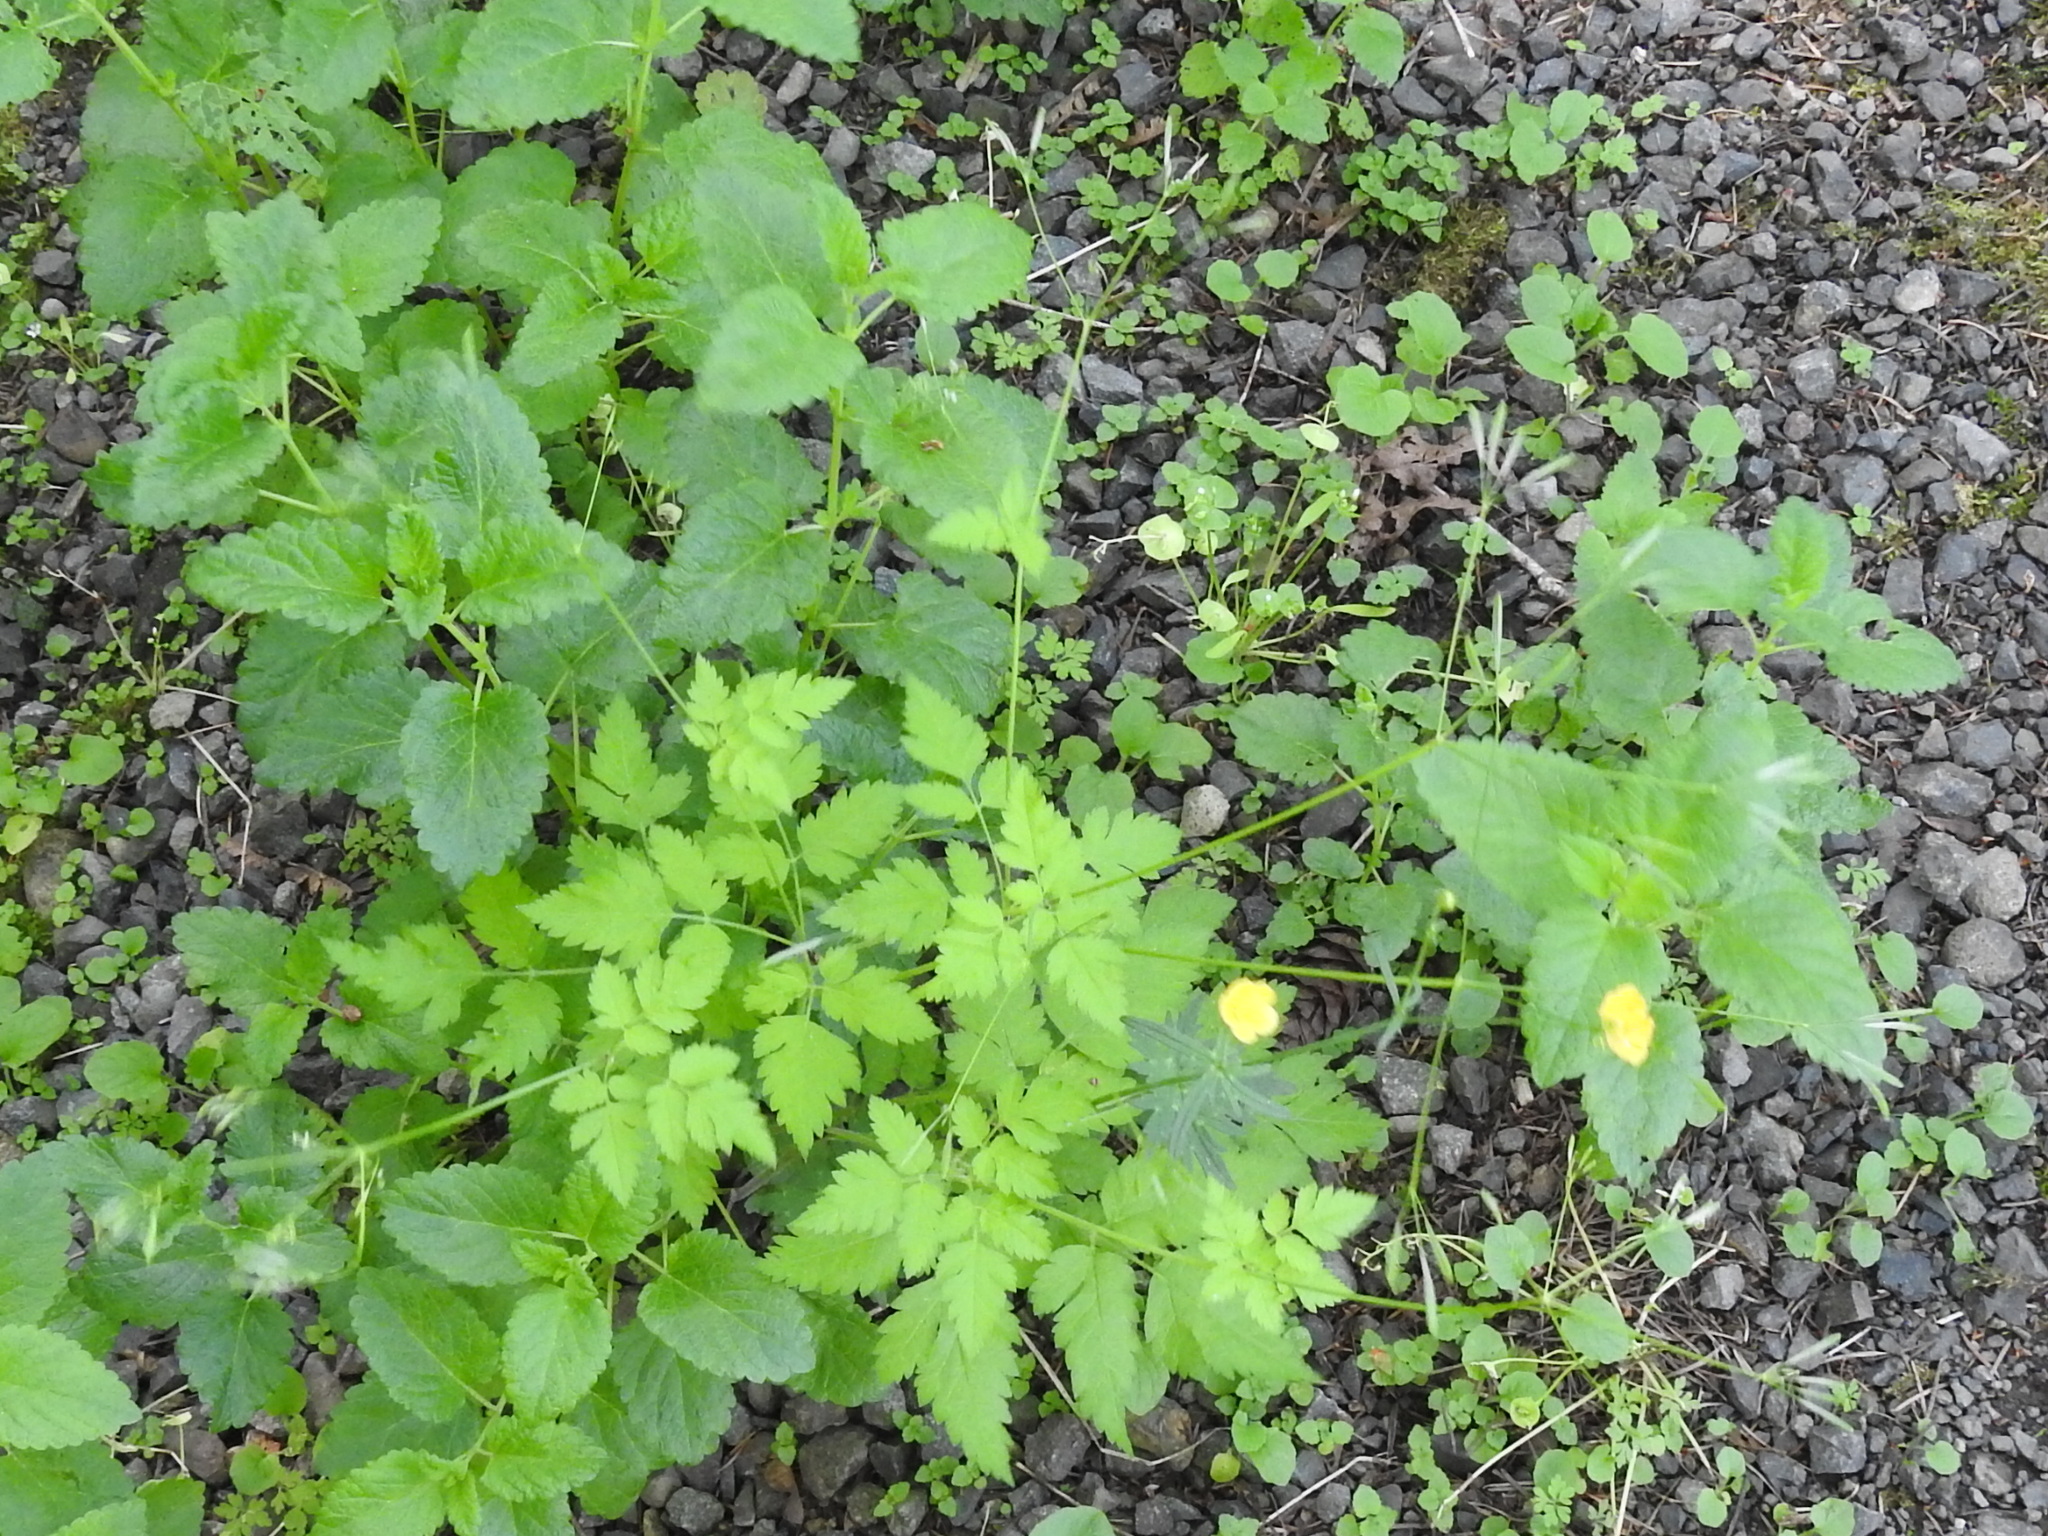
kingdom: Plantae
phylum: Tracheophyta
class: Magnoliopsida
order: Apiales
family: Apiaceae
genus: Osmorhiza
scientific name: Osmorhiza berteroi
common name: Mountain sweet cicely
